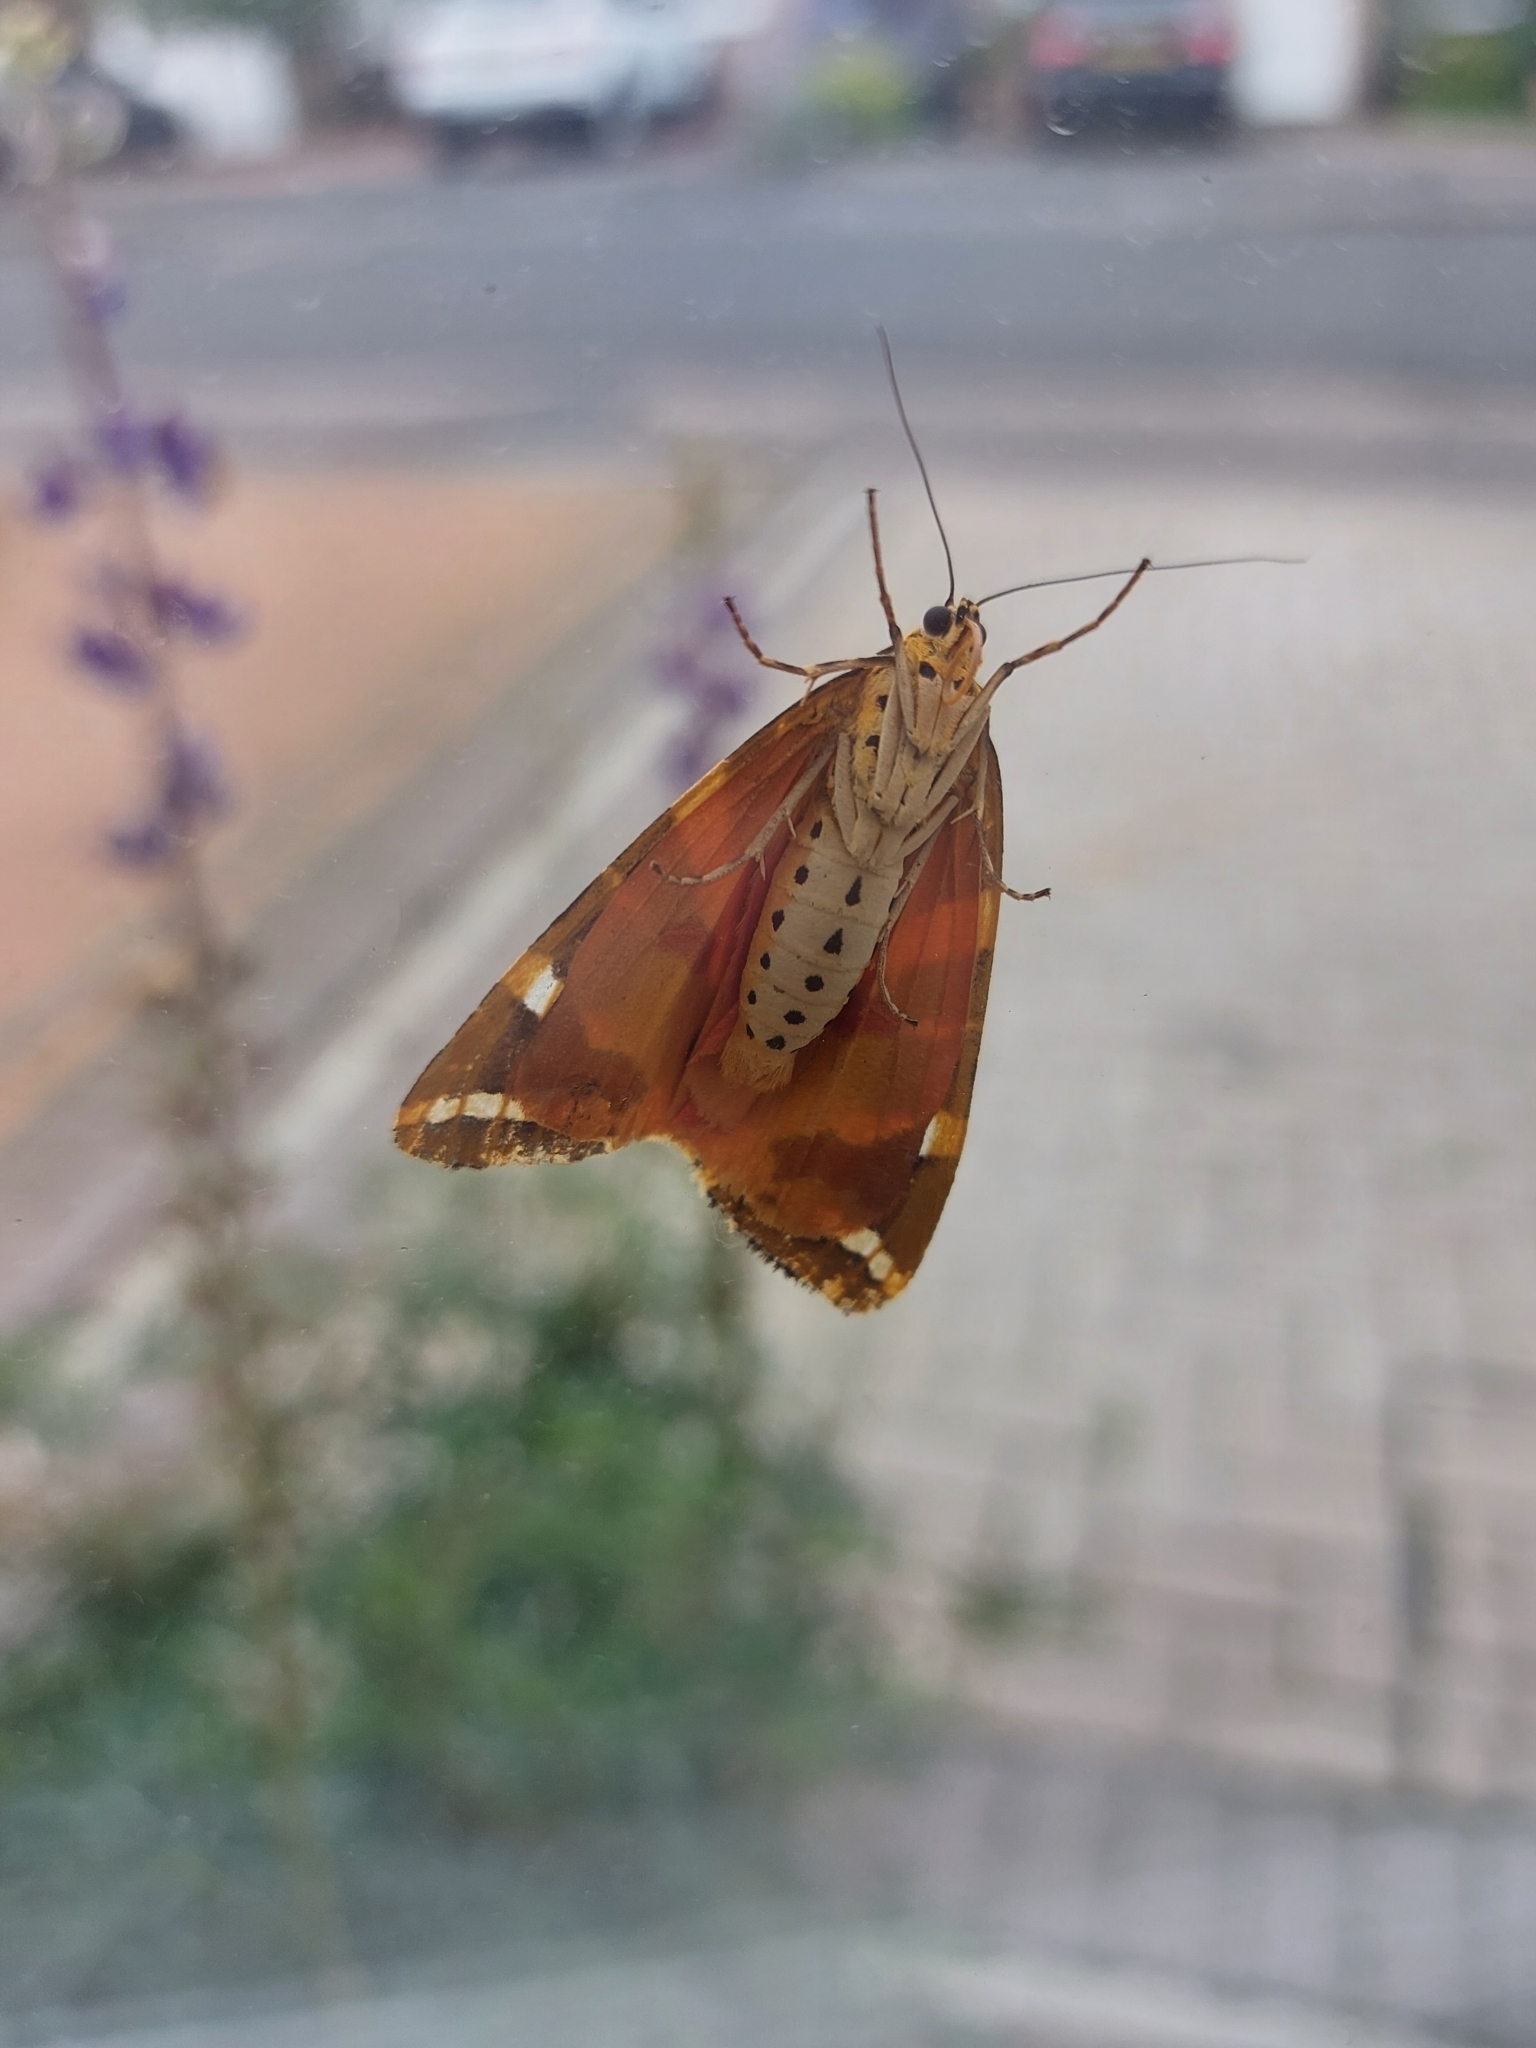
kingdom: Animalia
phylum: Arthropoda
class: Insecta
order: Lepidoptera
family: Erebidae
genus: Euplagia
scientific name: Euplagia quadripunctaria
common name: Jersey tiger
